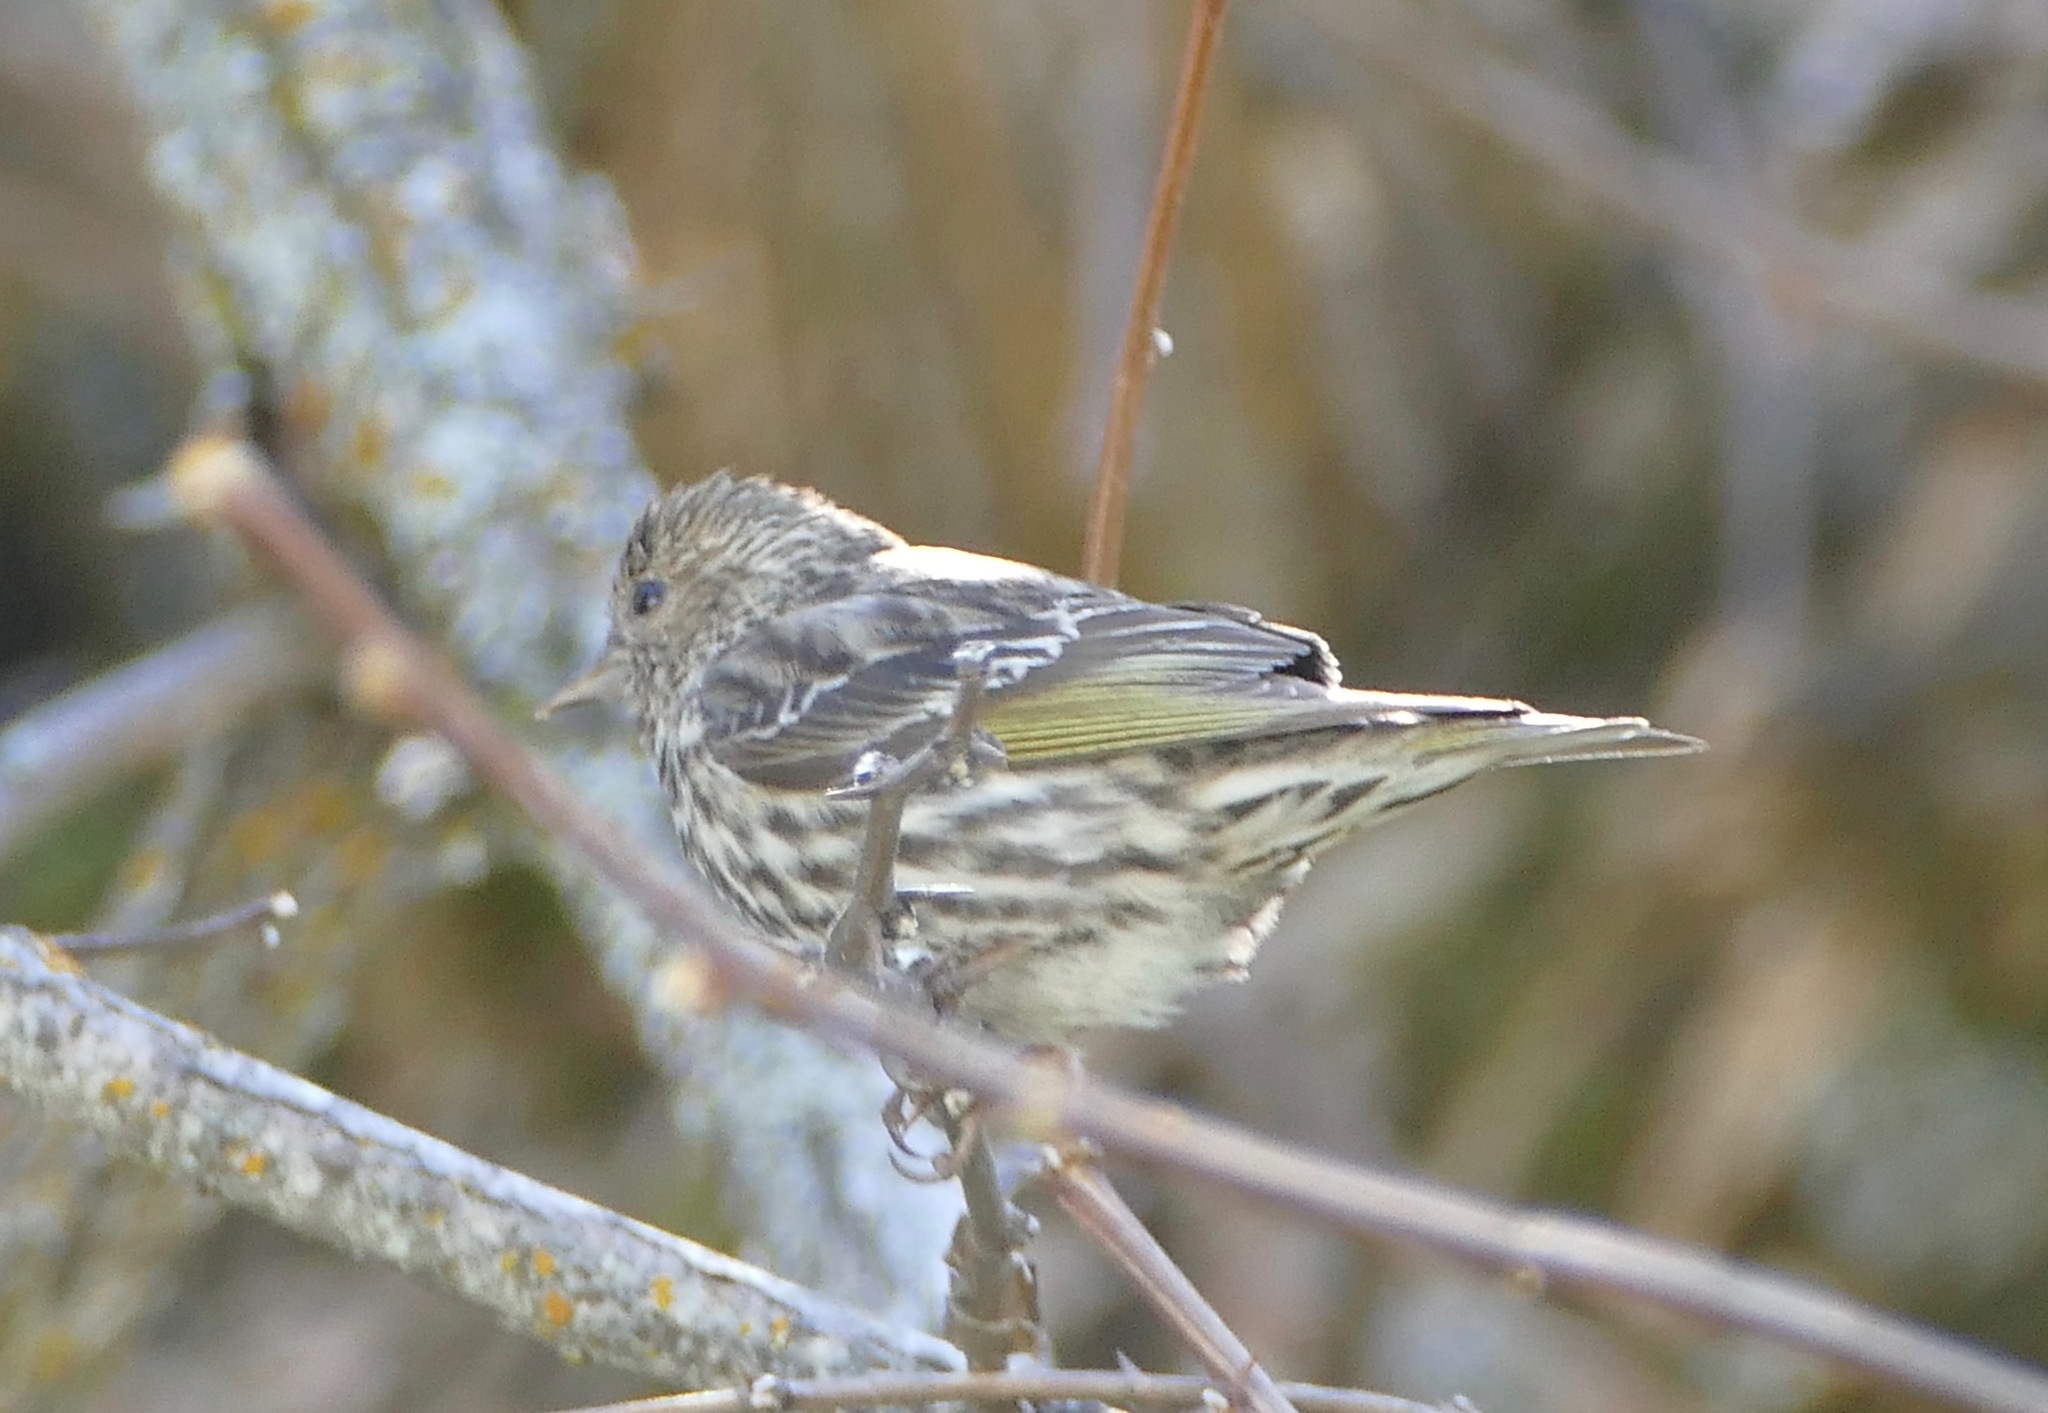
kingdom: Animalia
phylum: Chordata
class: Aves
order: Passeriformes
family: Fringillidae
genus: Spinus
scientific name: Spinus pinus
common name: Pine siskin
